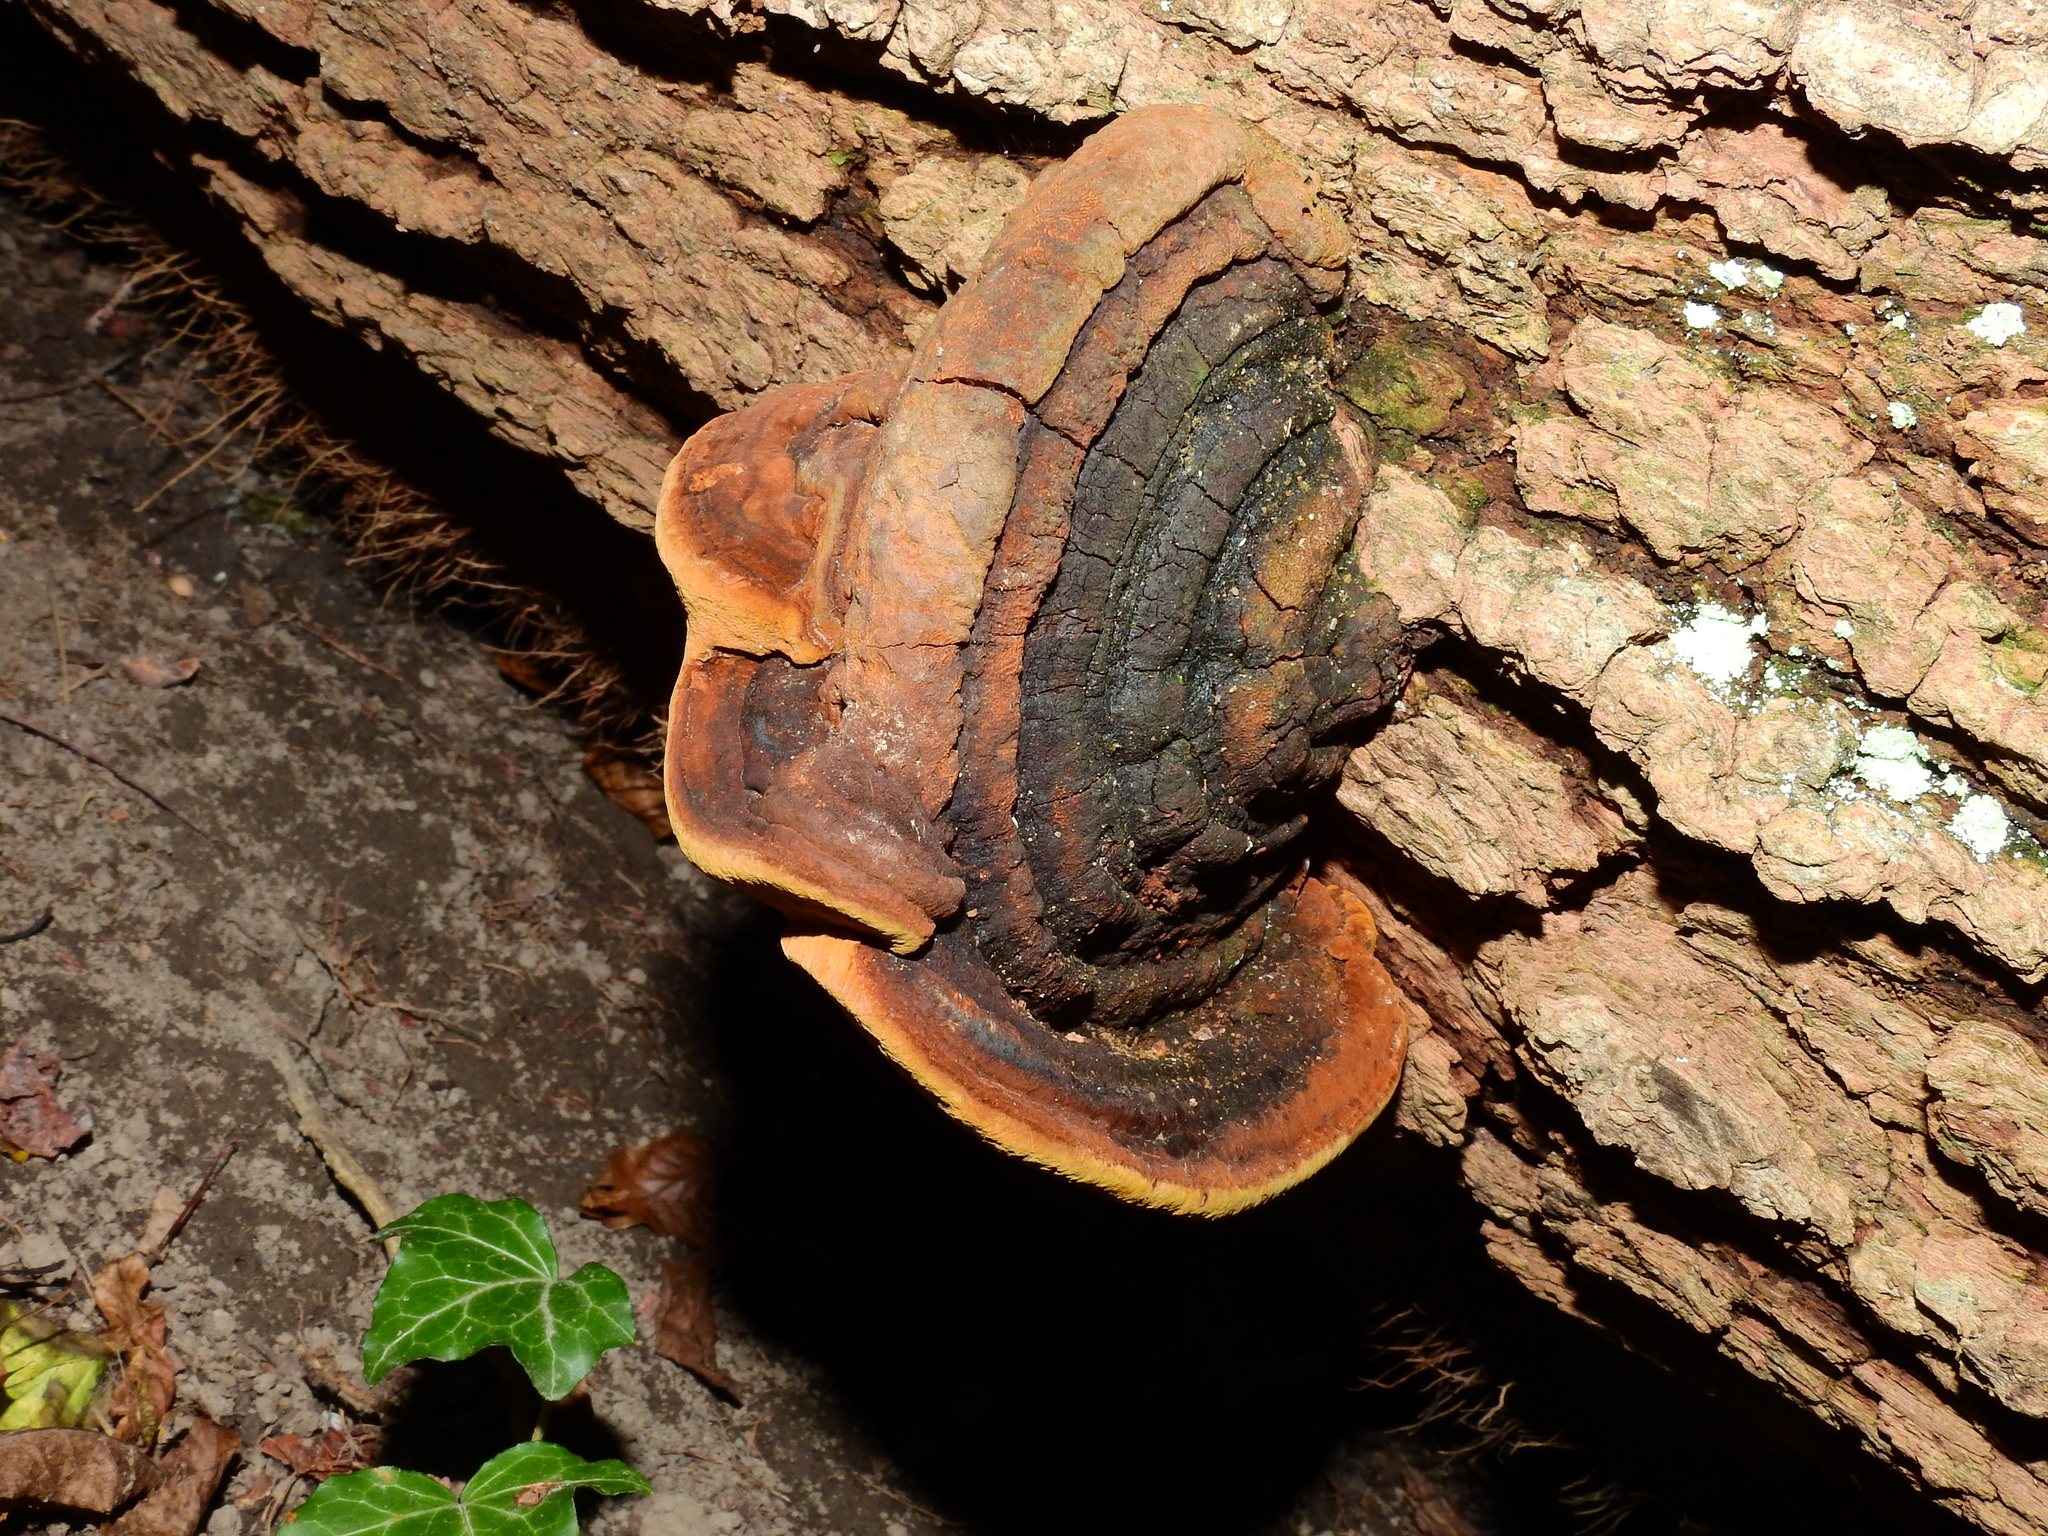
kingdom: Fungi
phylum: Basidiomycota
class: Agaricomycetes
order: Hymenochaetales
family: Hymenochaetaceae
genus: Phellinus
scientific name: Phellinus robiniae
